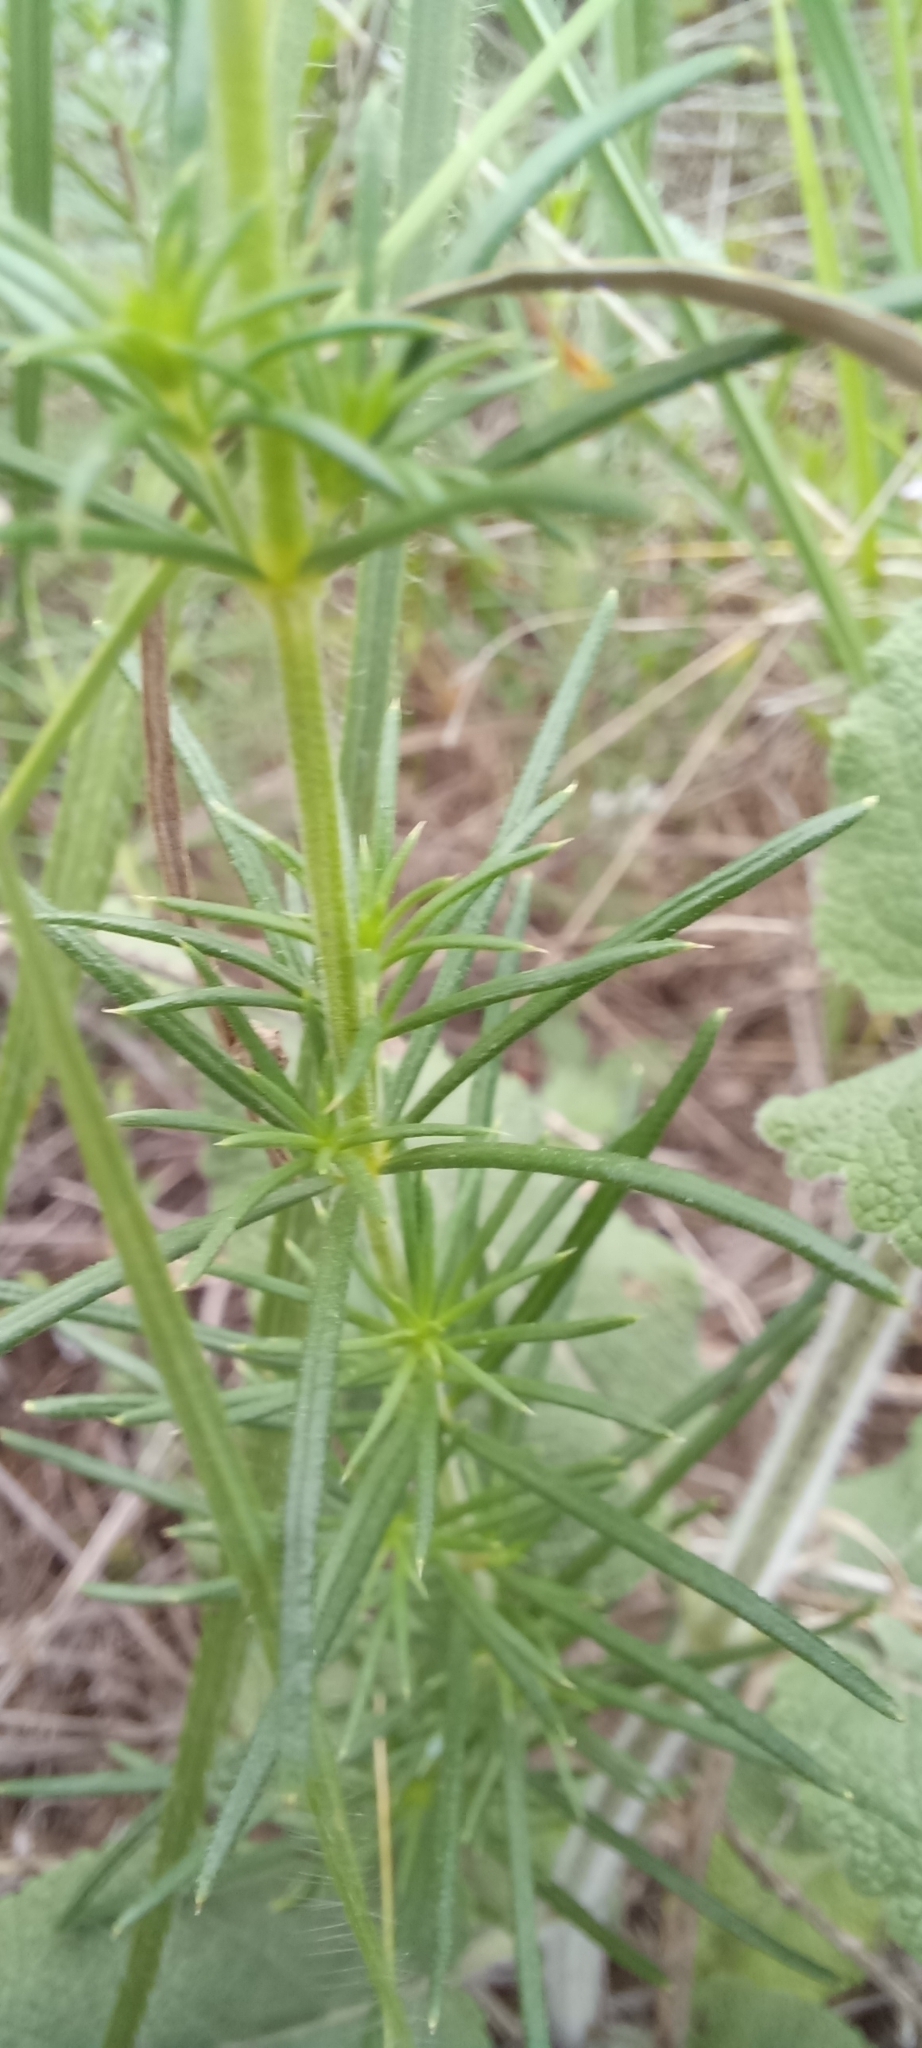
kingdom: Plantae
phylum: Tracheophyta
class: Magnoliopsida
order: Gentianales
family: Rubiaceae
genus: Galium
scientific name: Galium verum
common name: Lady's bedstraw
